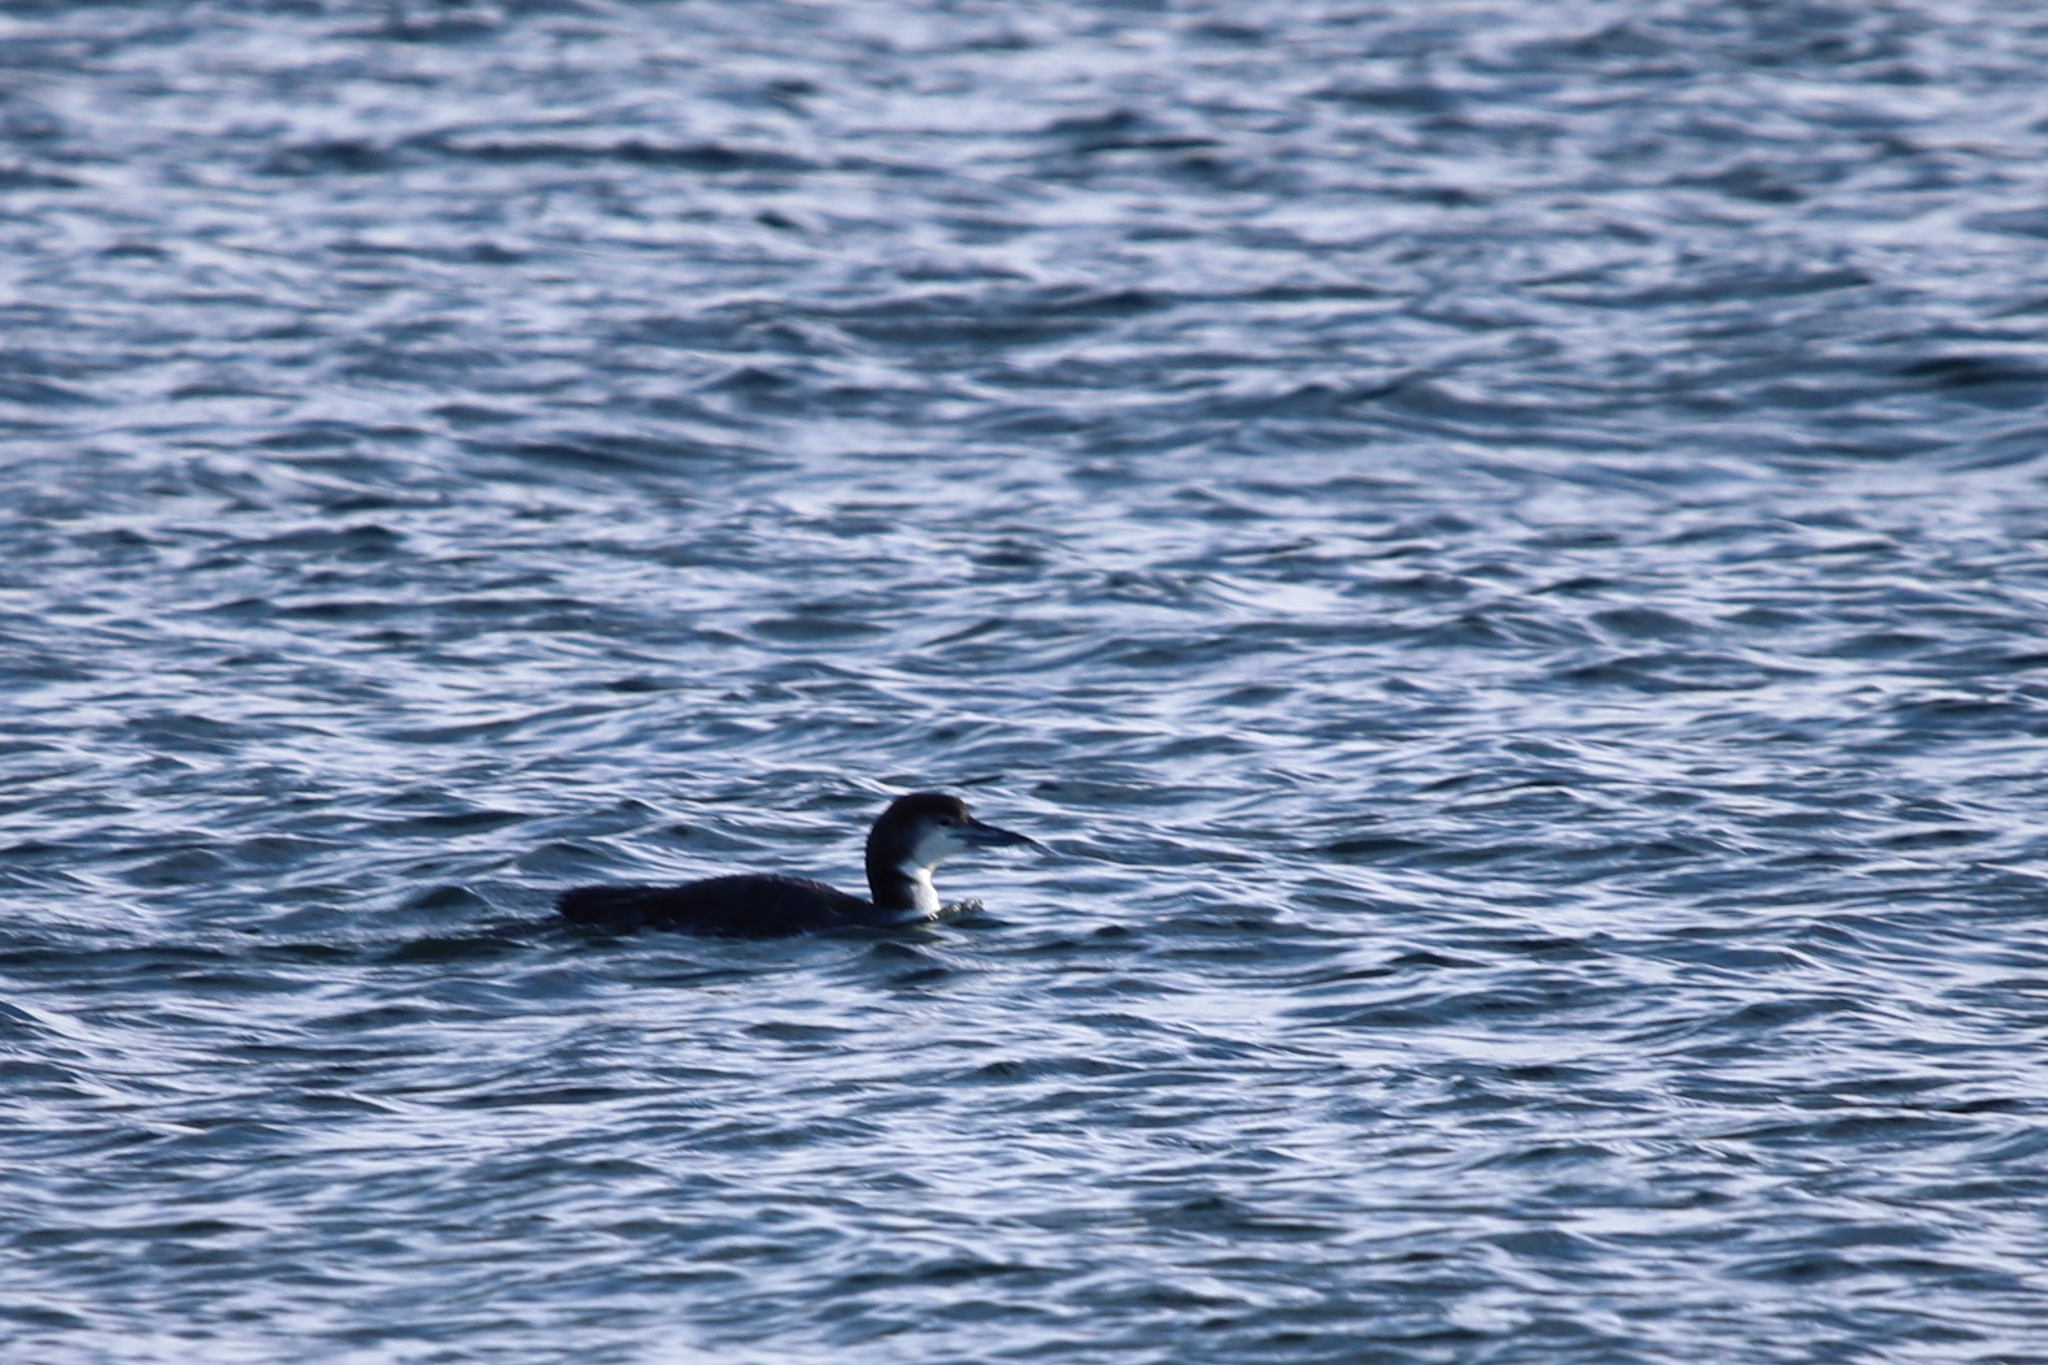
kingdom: Animalia
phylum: Chordata
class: Aves
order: Gaviiformes
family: Gaviidae
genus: Gavia
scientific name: Gavia immer
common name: Common loon
